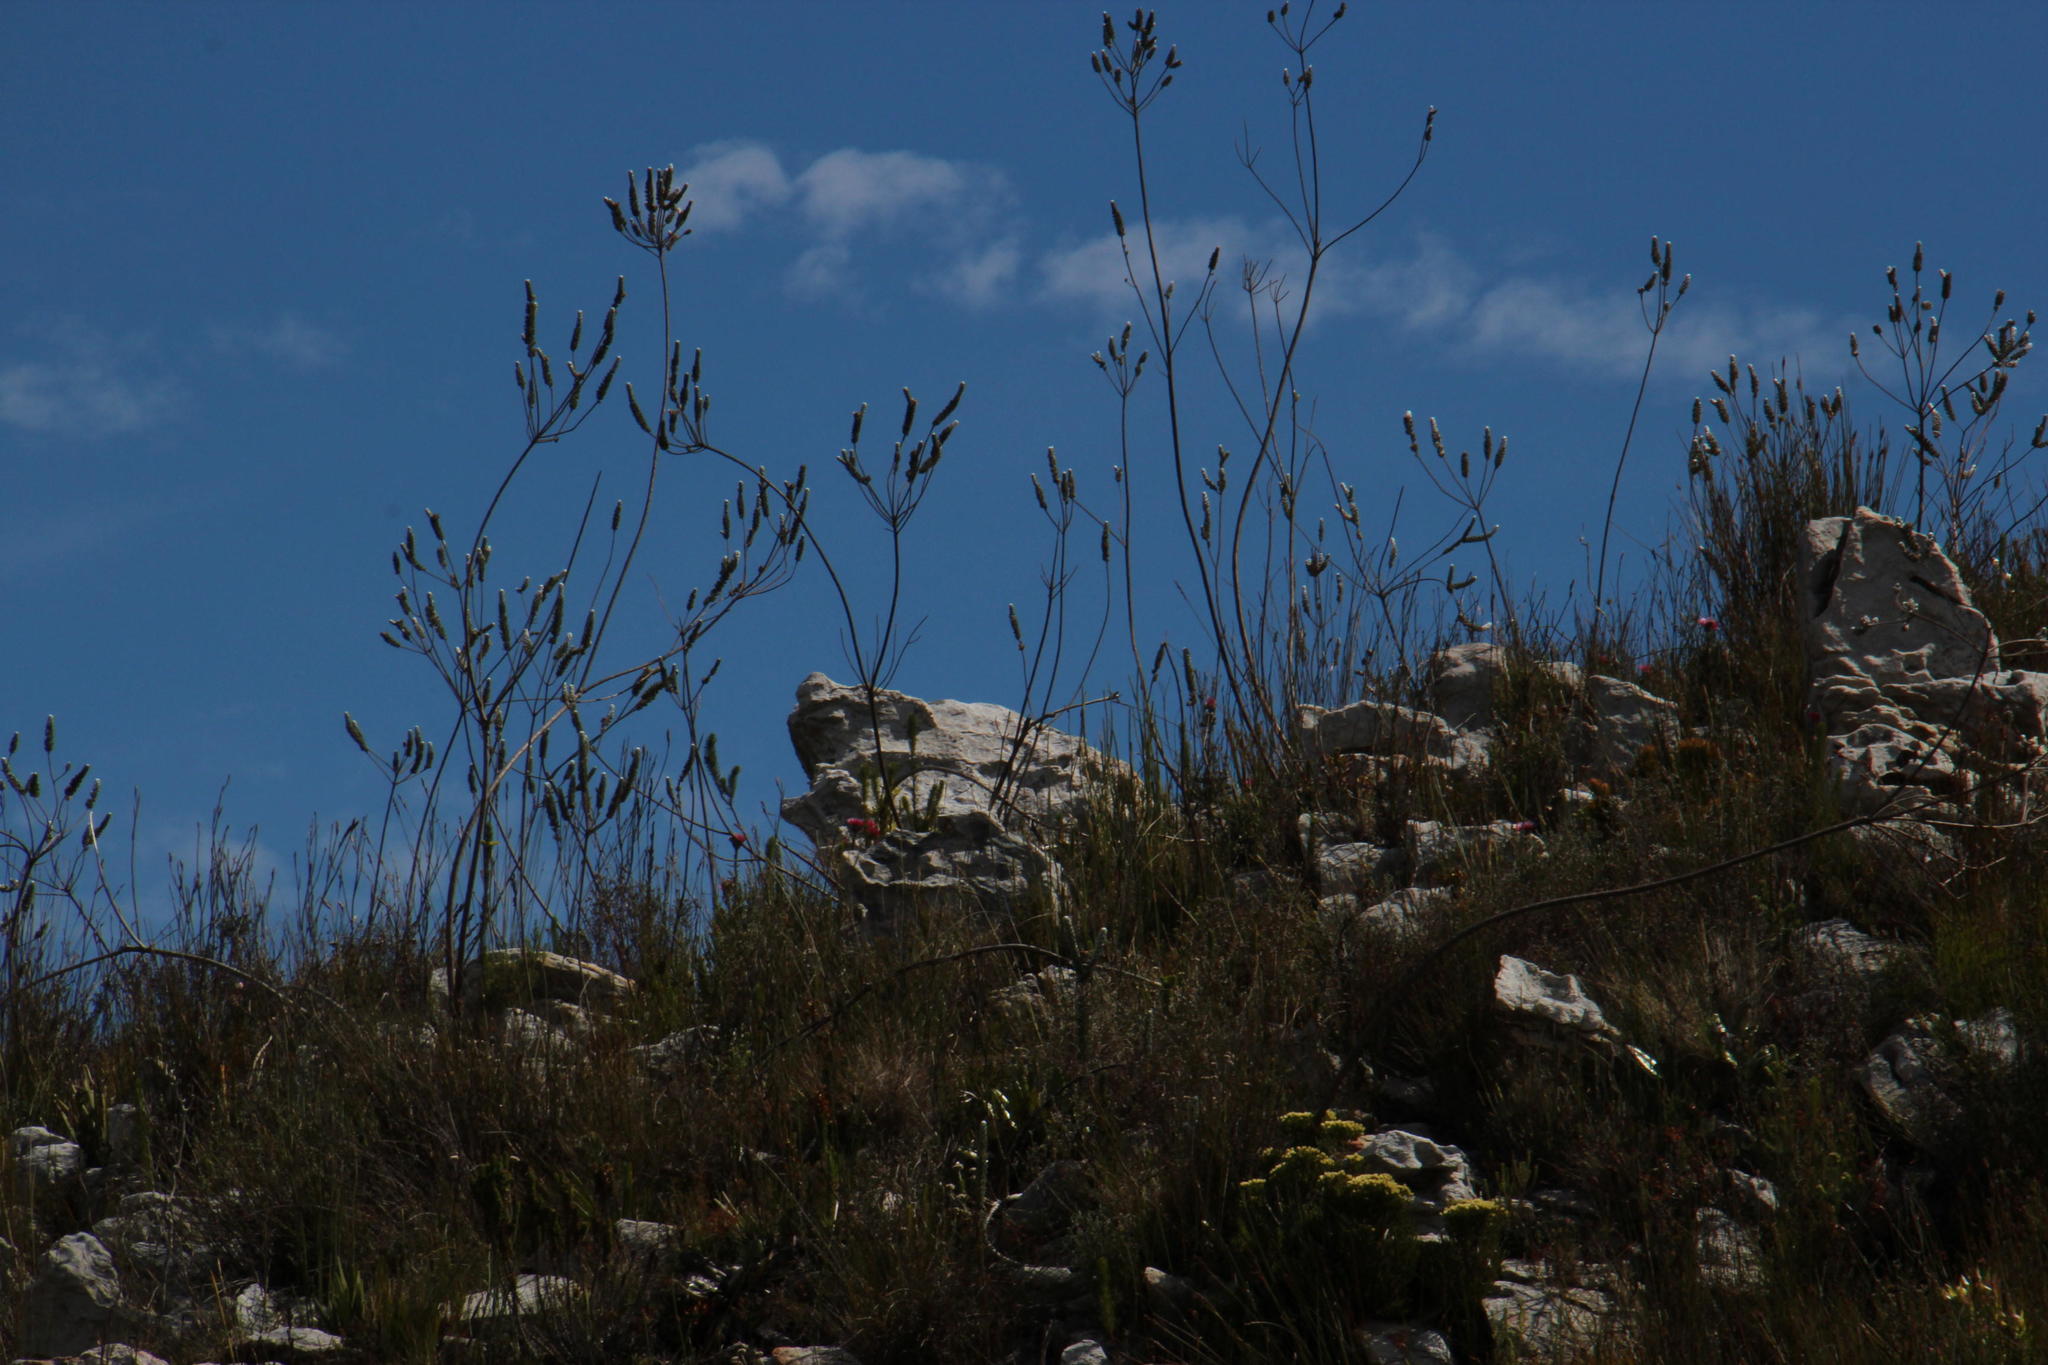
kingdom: Plantae
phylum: Tracheophyta
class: Magnoliopsida
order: Fabales
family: Fabaceae
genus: Liparia
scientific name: Liparia vestita
